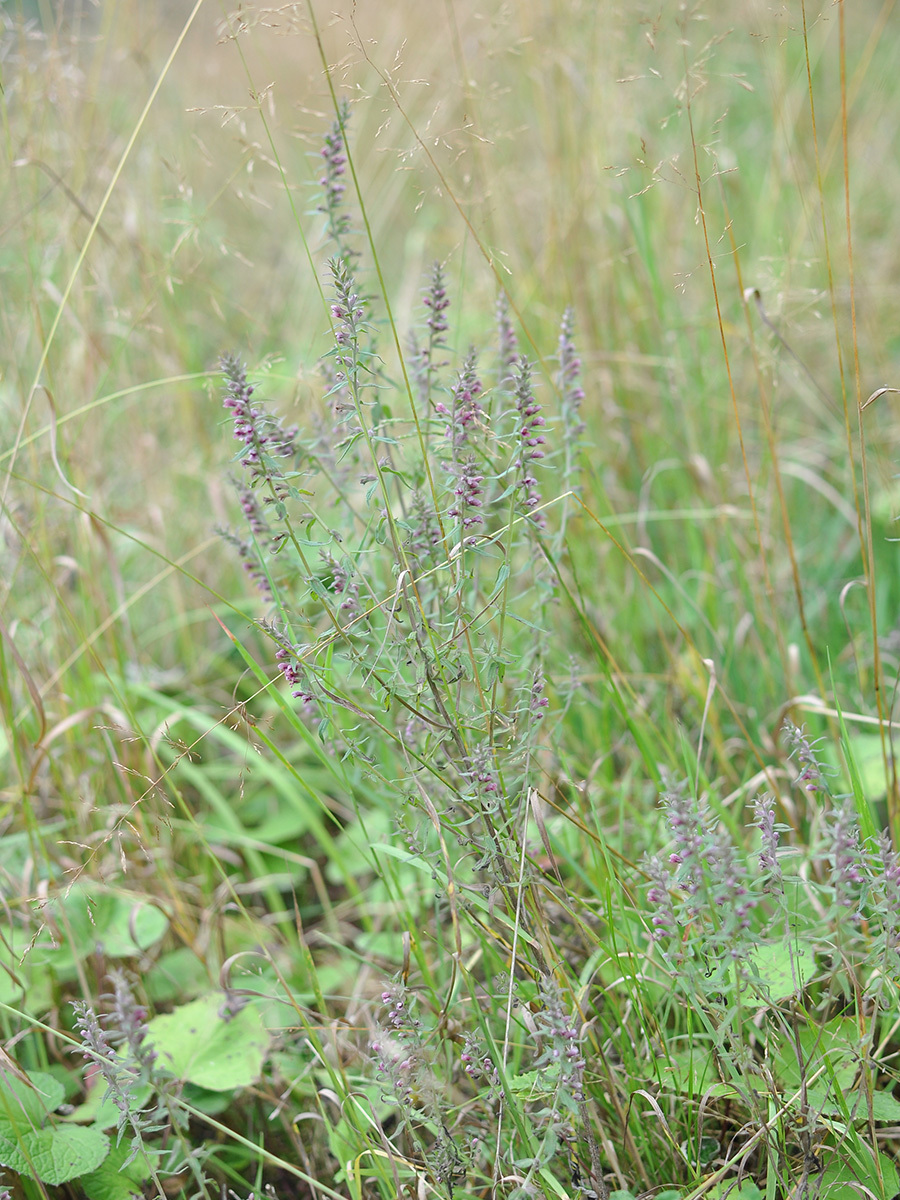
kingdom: Plantae
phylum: Tracheophyta
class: Magnoliopsida
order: Lamiales
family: Orobanchaceae
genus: Odontites
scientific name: Odontites vulgaris
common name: Broomrape
